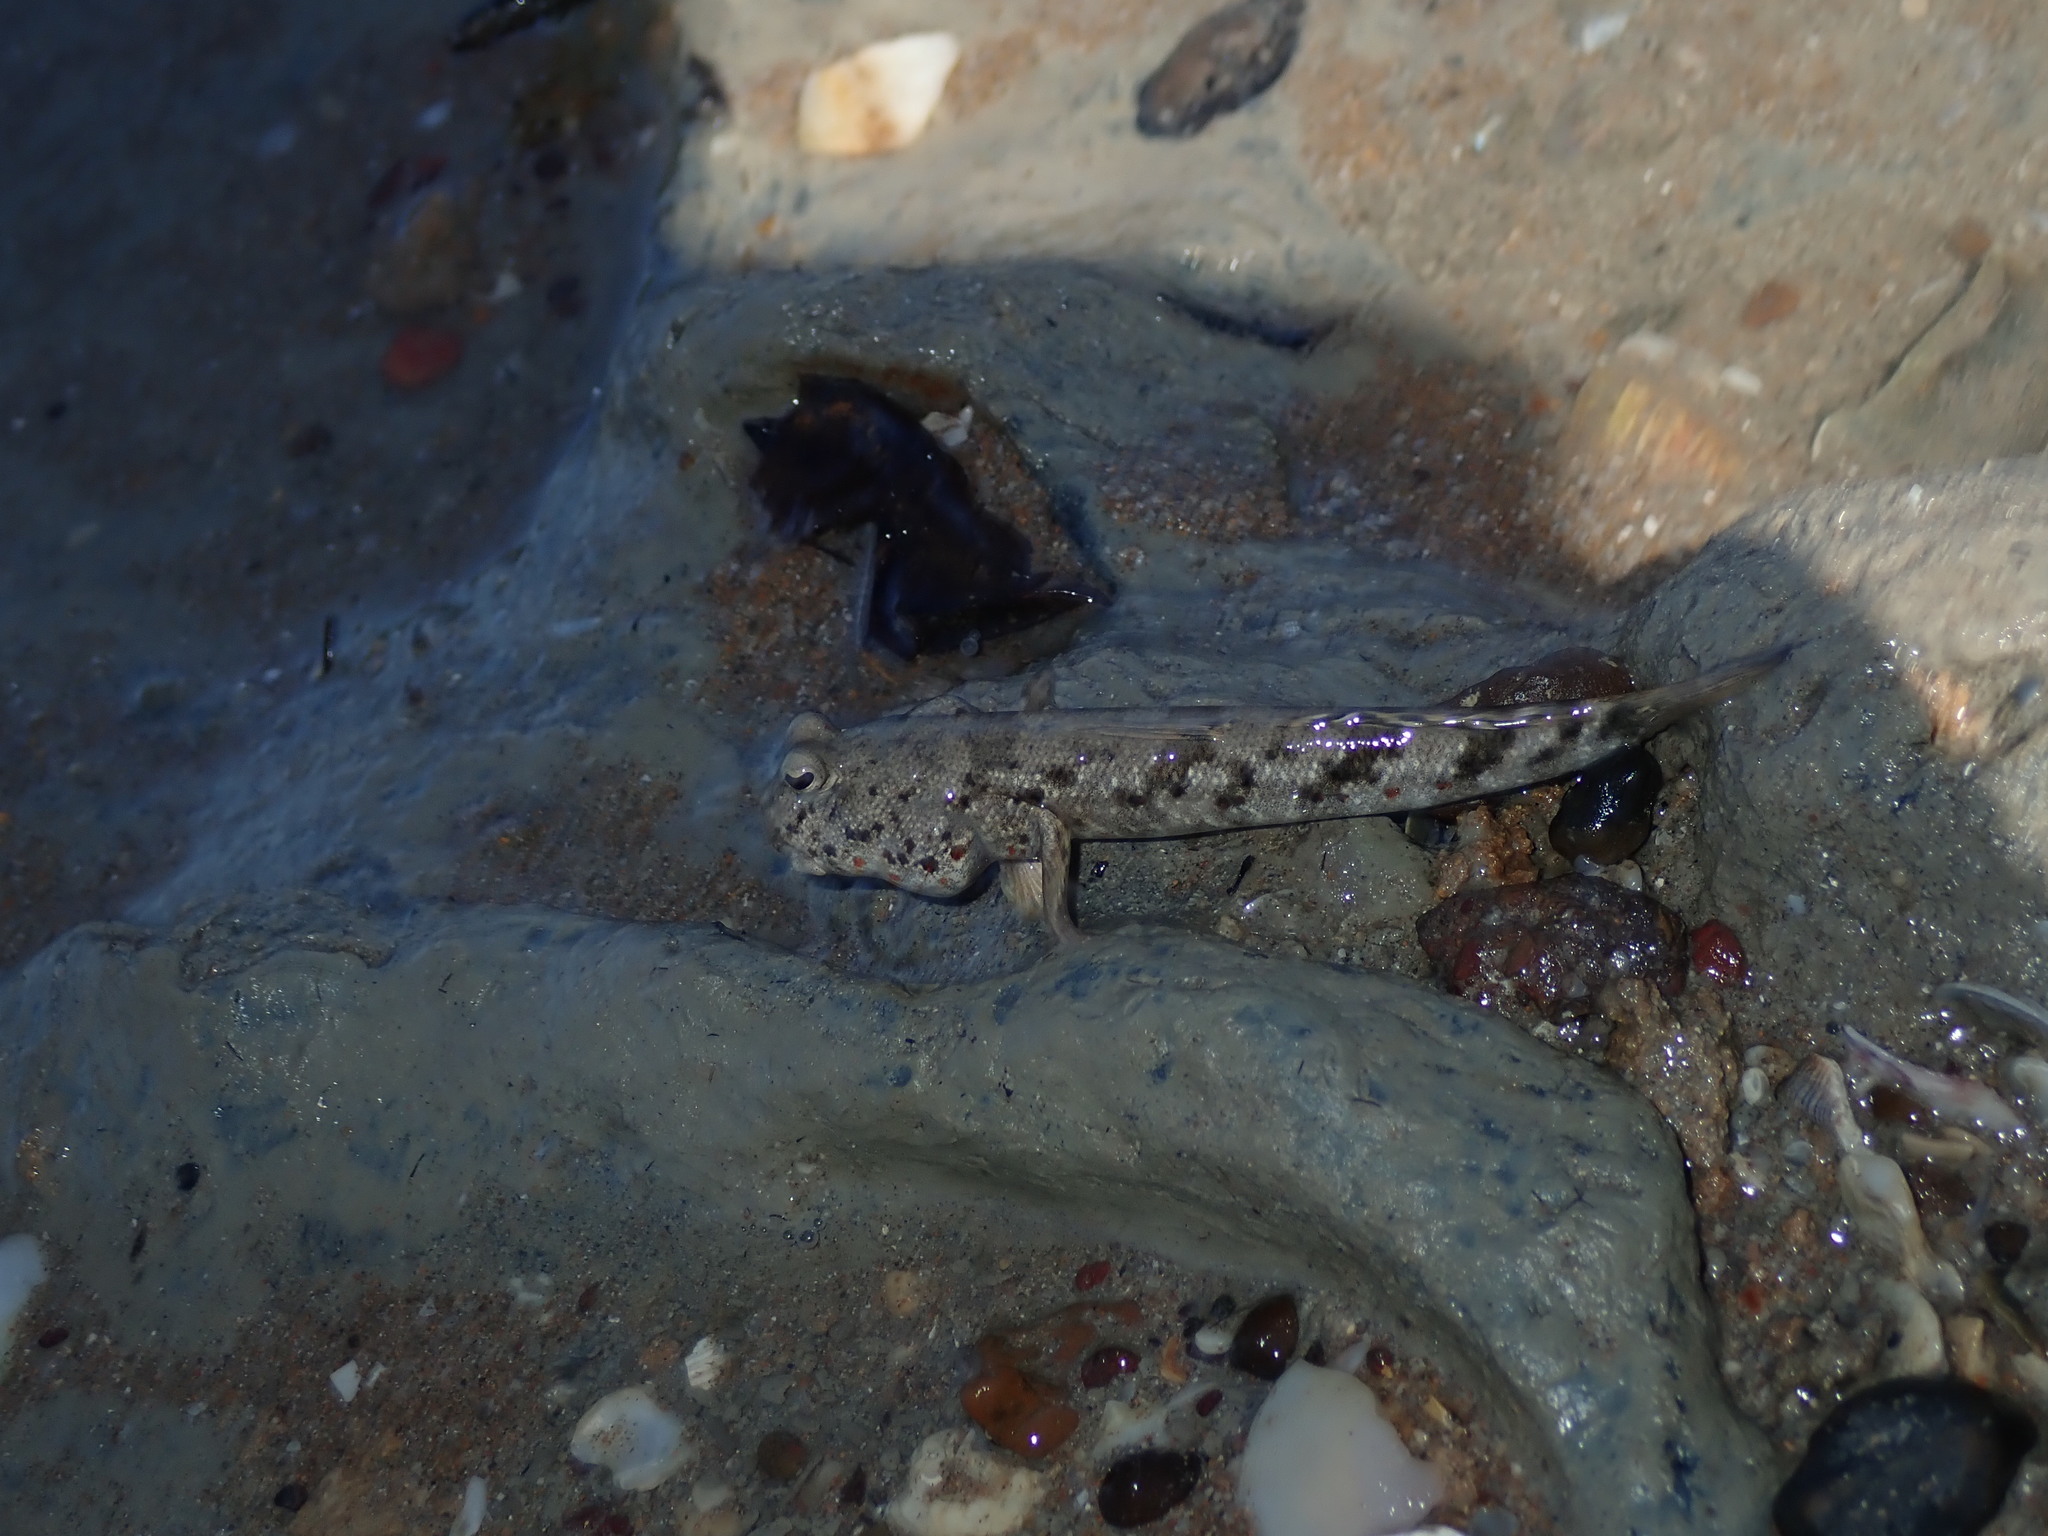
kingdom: Animalia
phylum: Chordata
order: Perciformes
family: Gobiidae
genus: Periophthalmus
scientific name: Periophthalmus takita
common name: Takita's mudskipper
